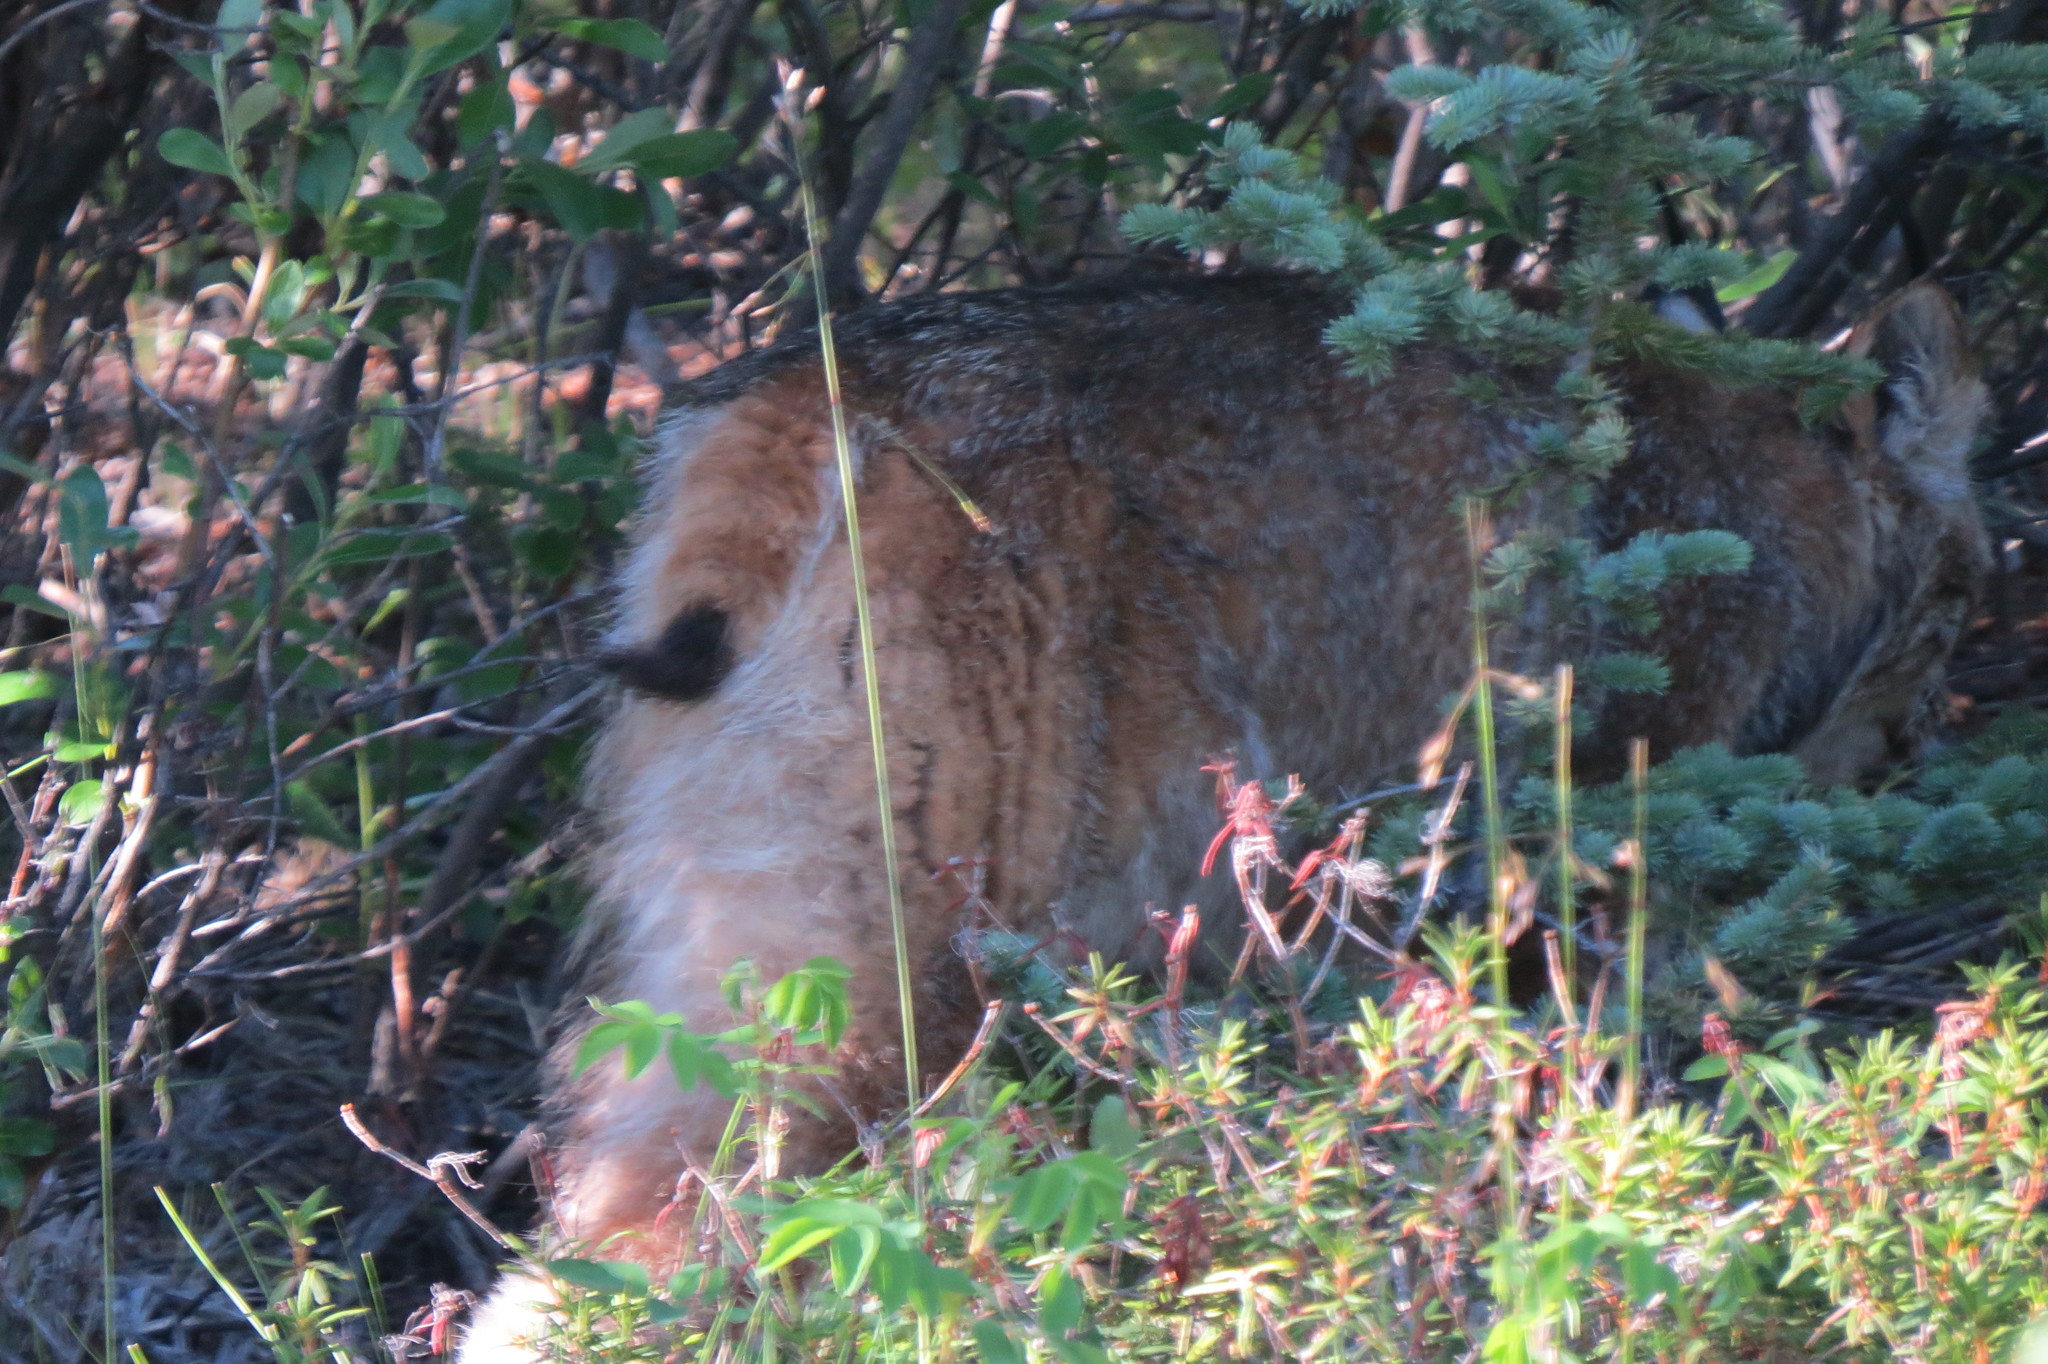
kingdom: Animalia
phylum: Chordata
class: Mammalia
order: Carnivora
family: Felidae
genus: Lynx
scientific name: Lynx canadensis
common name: Canadian lynx
